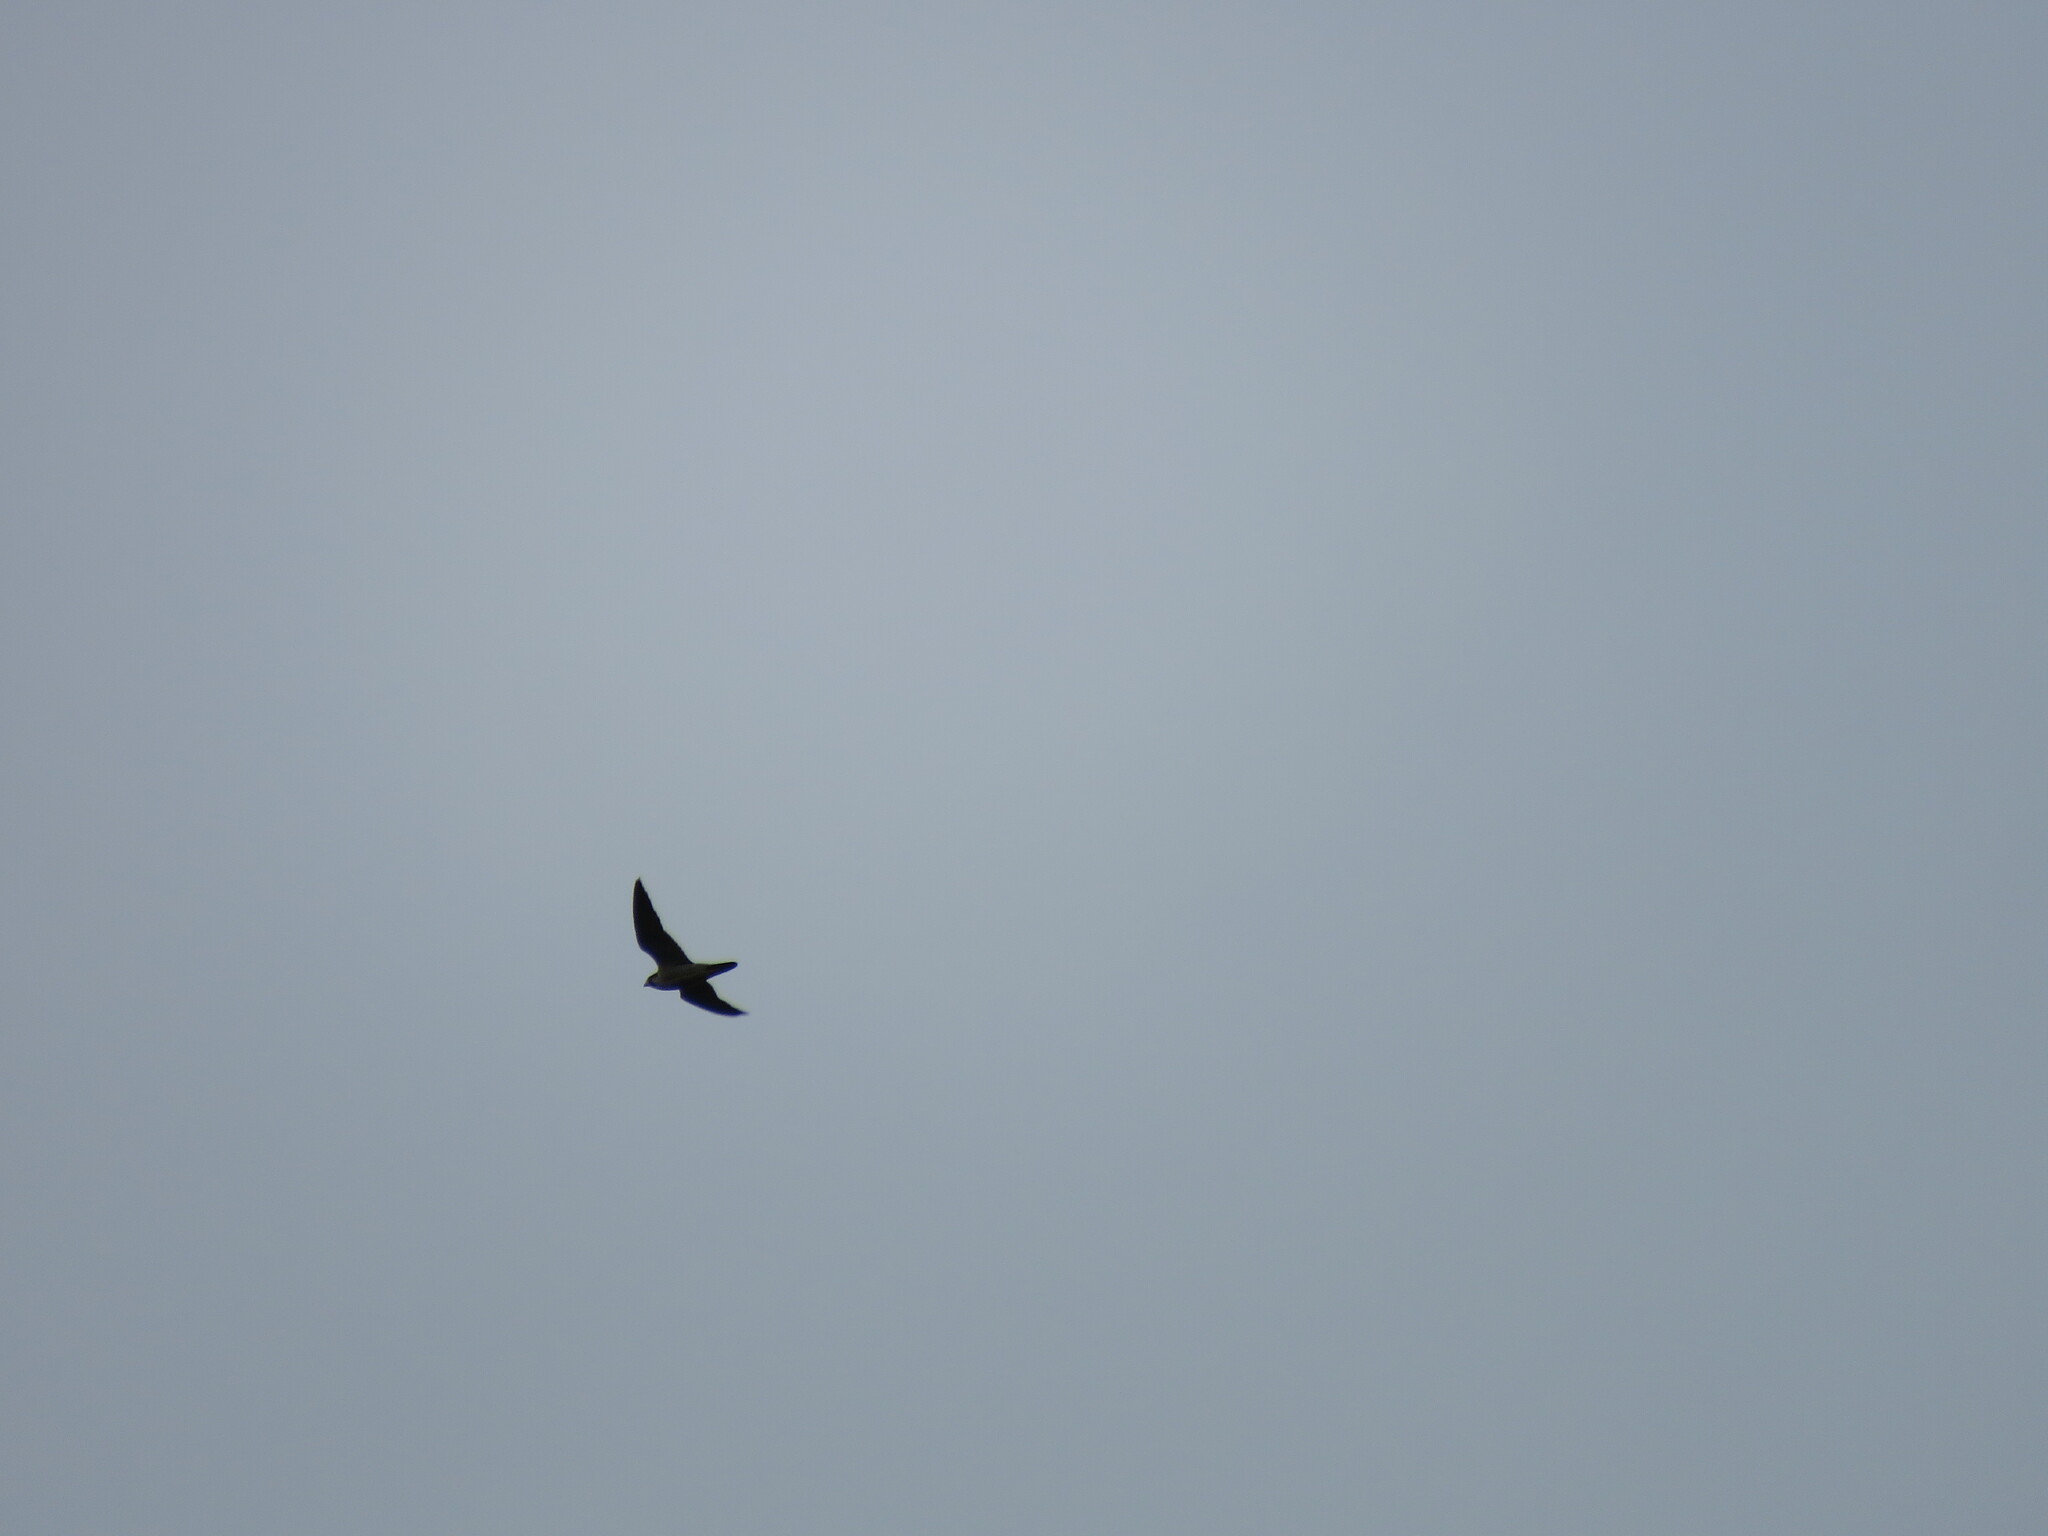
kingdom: Animalia
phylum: Chordata
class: Aves
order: Falconiformes
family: Falconidae
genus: Falco
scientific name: Falco peregrinus
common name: Peregrine falcon
